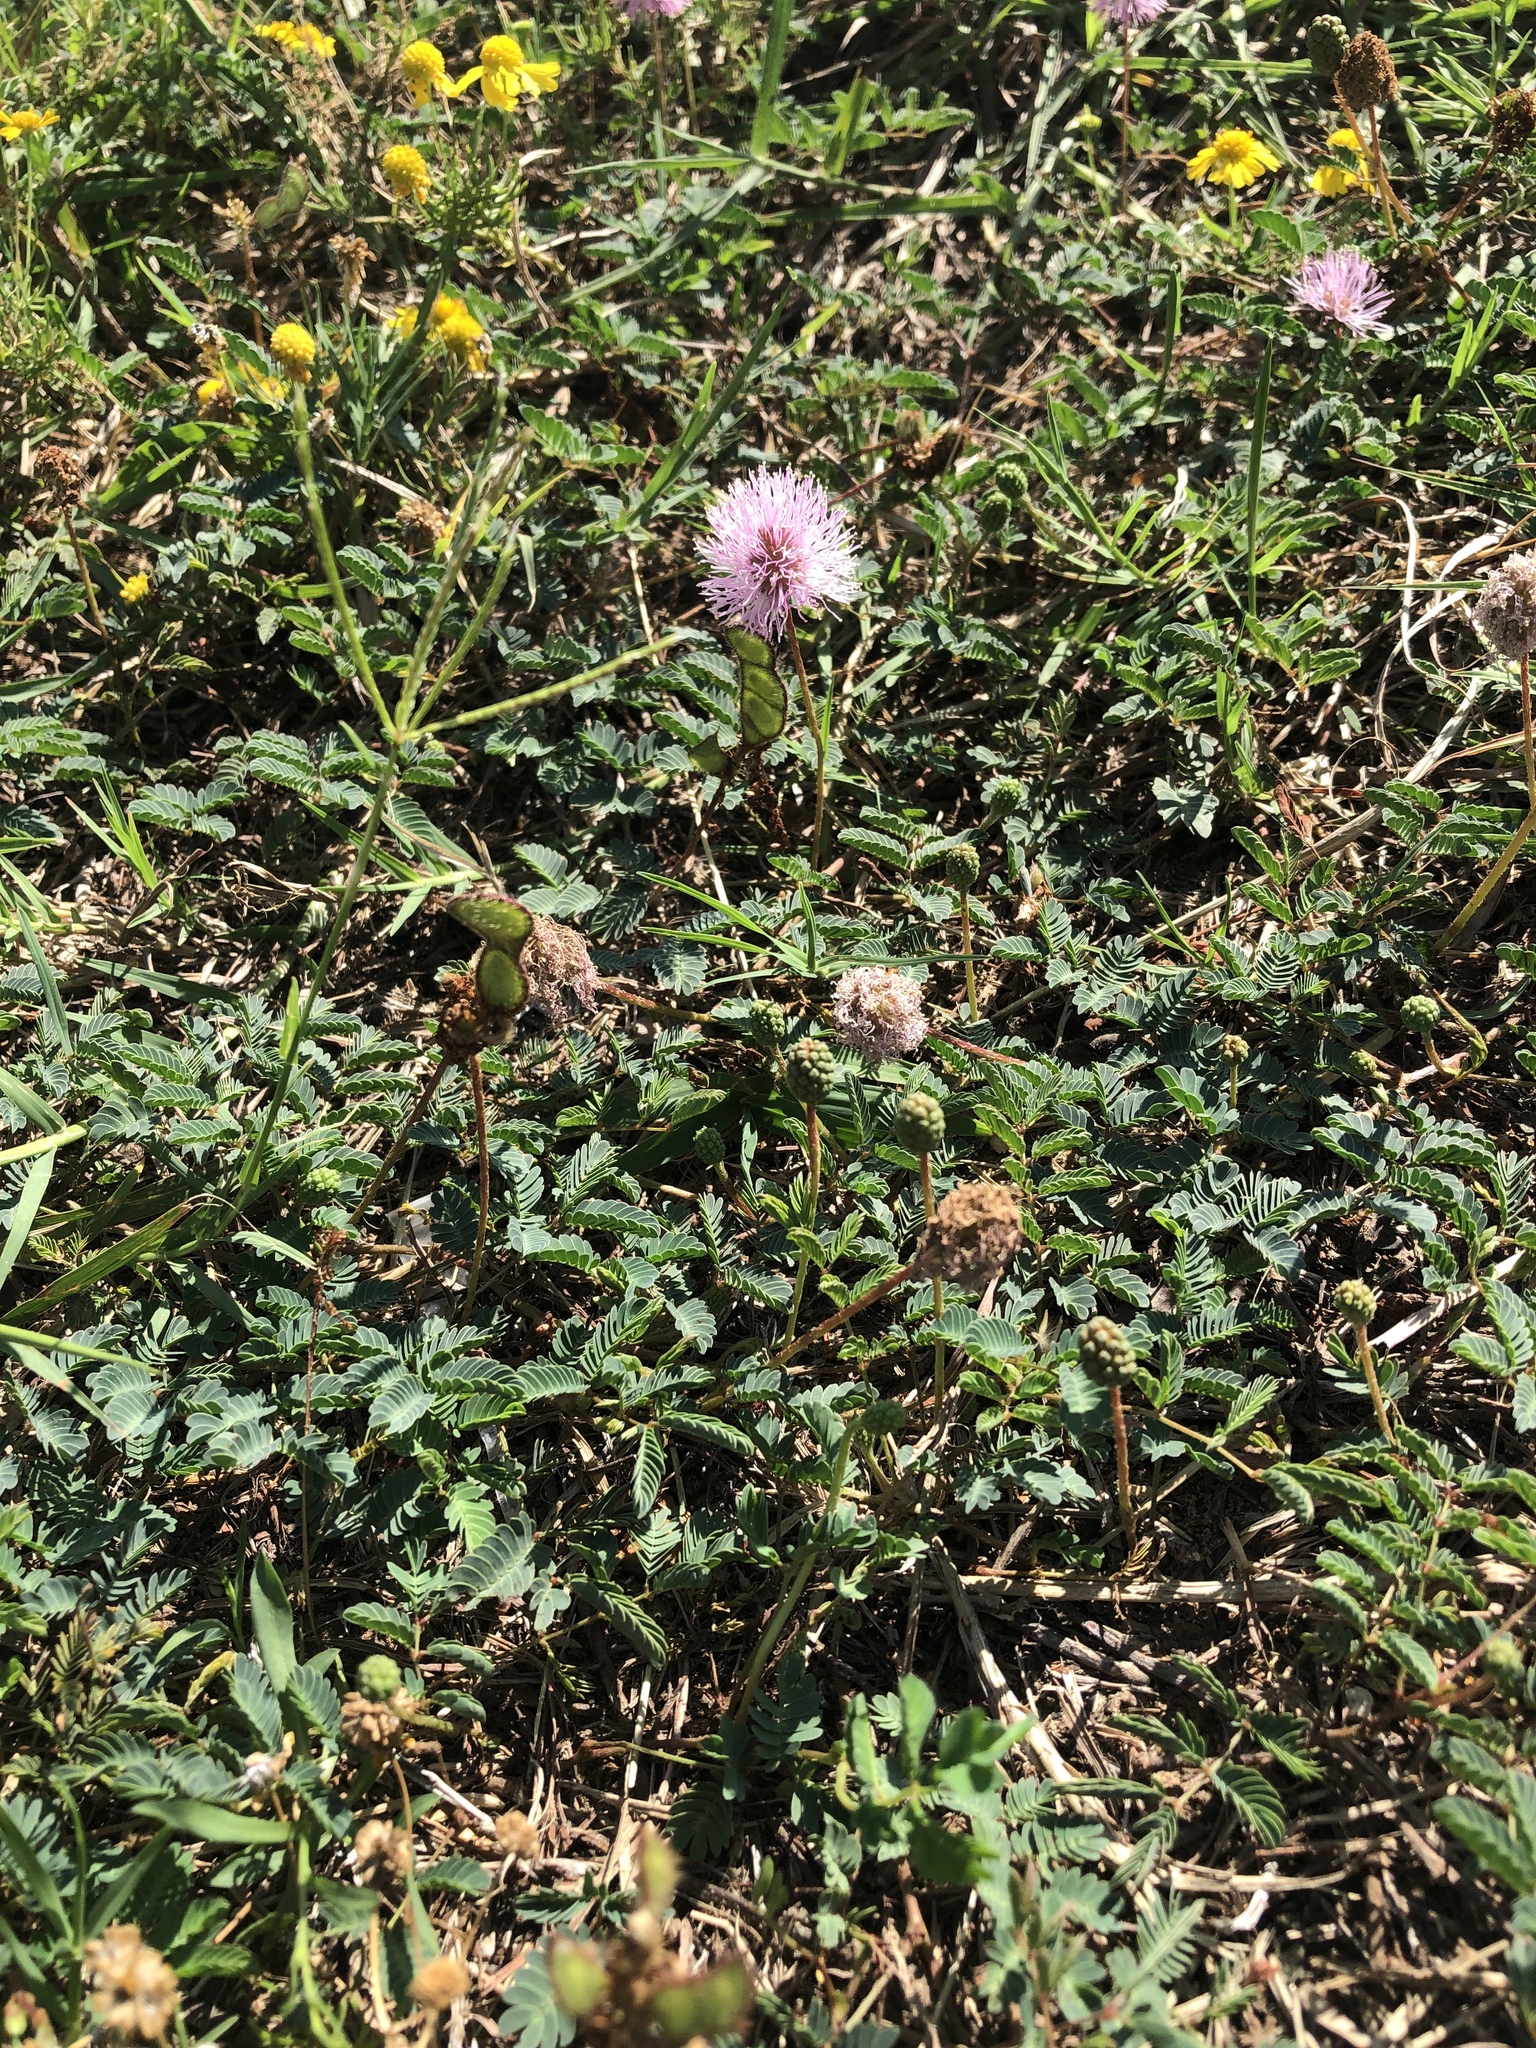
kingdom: Plantae
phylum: Tracheophyta
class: Magnoliopsida
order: Fabales
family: Fabaceae
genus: Mimosa
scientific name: Mimosa strigillosa
